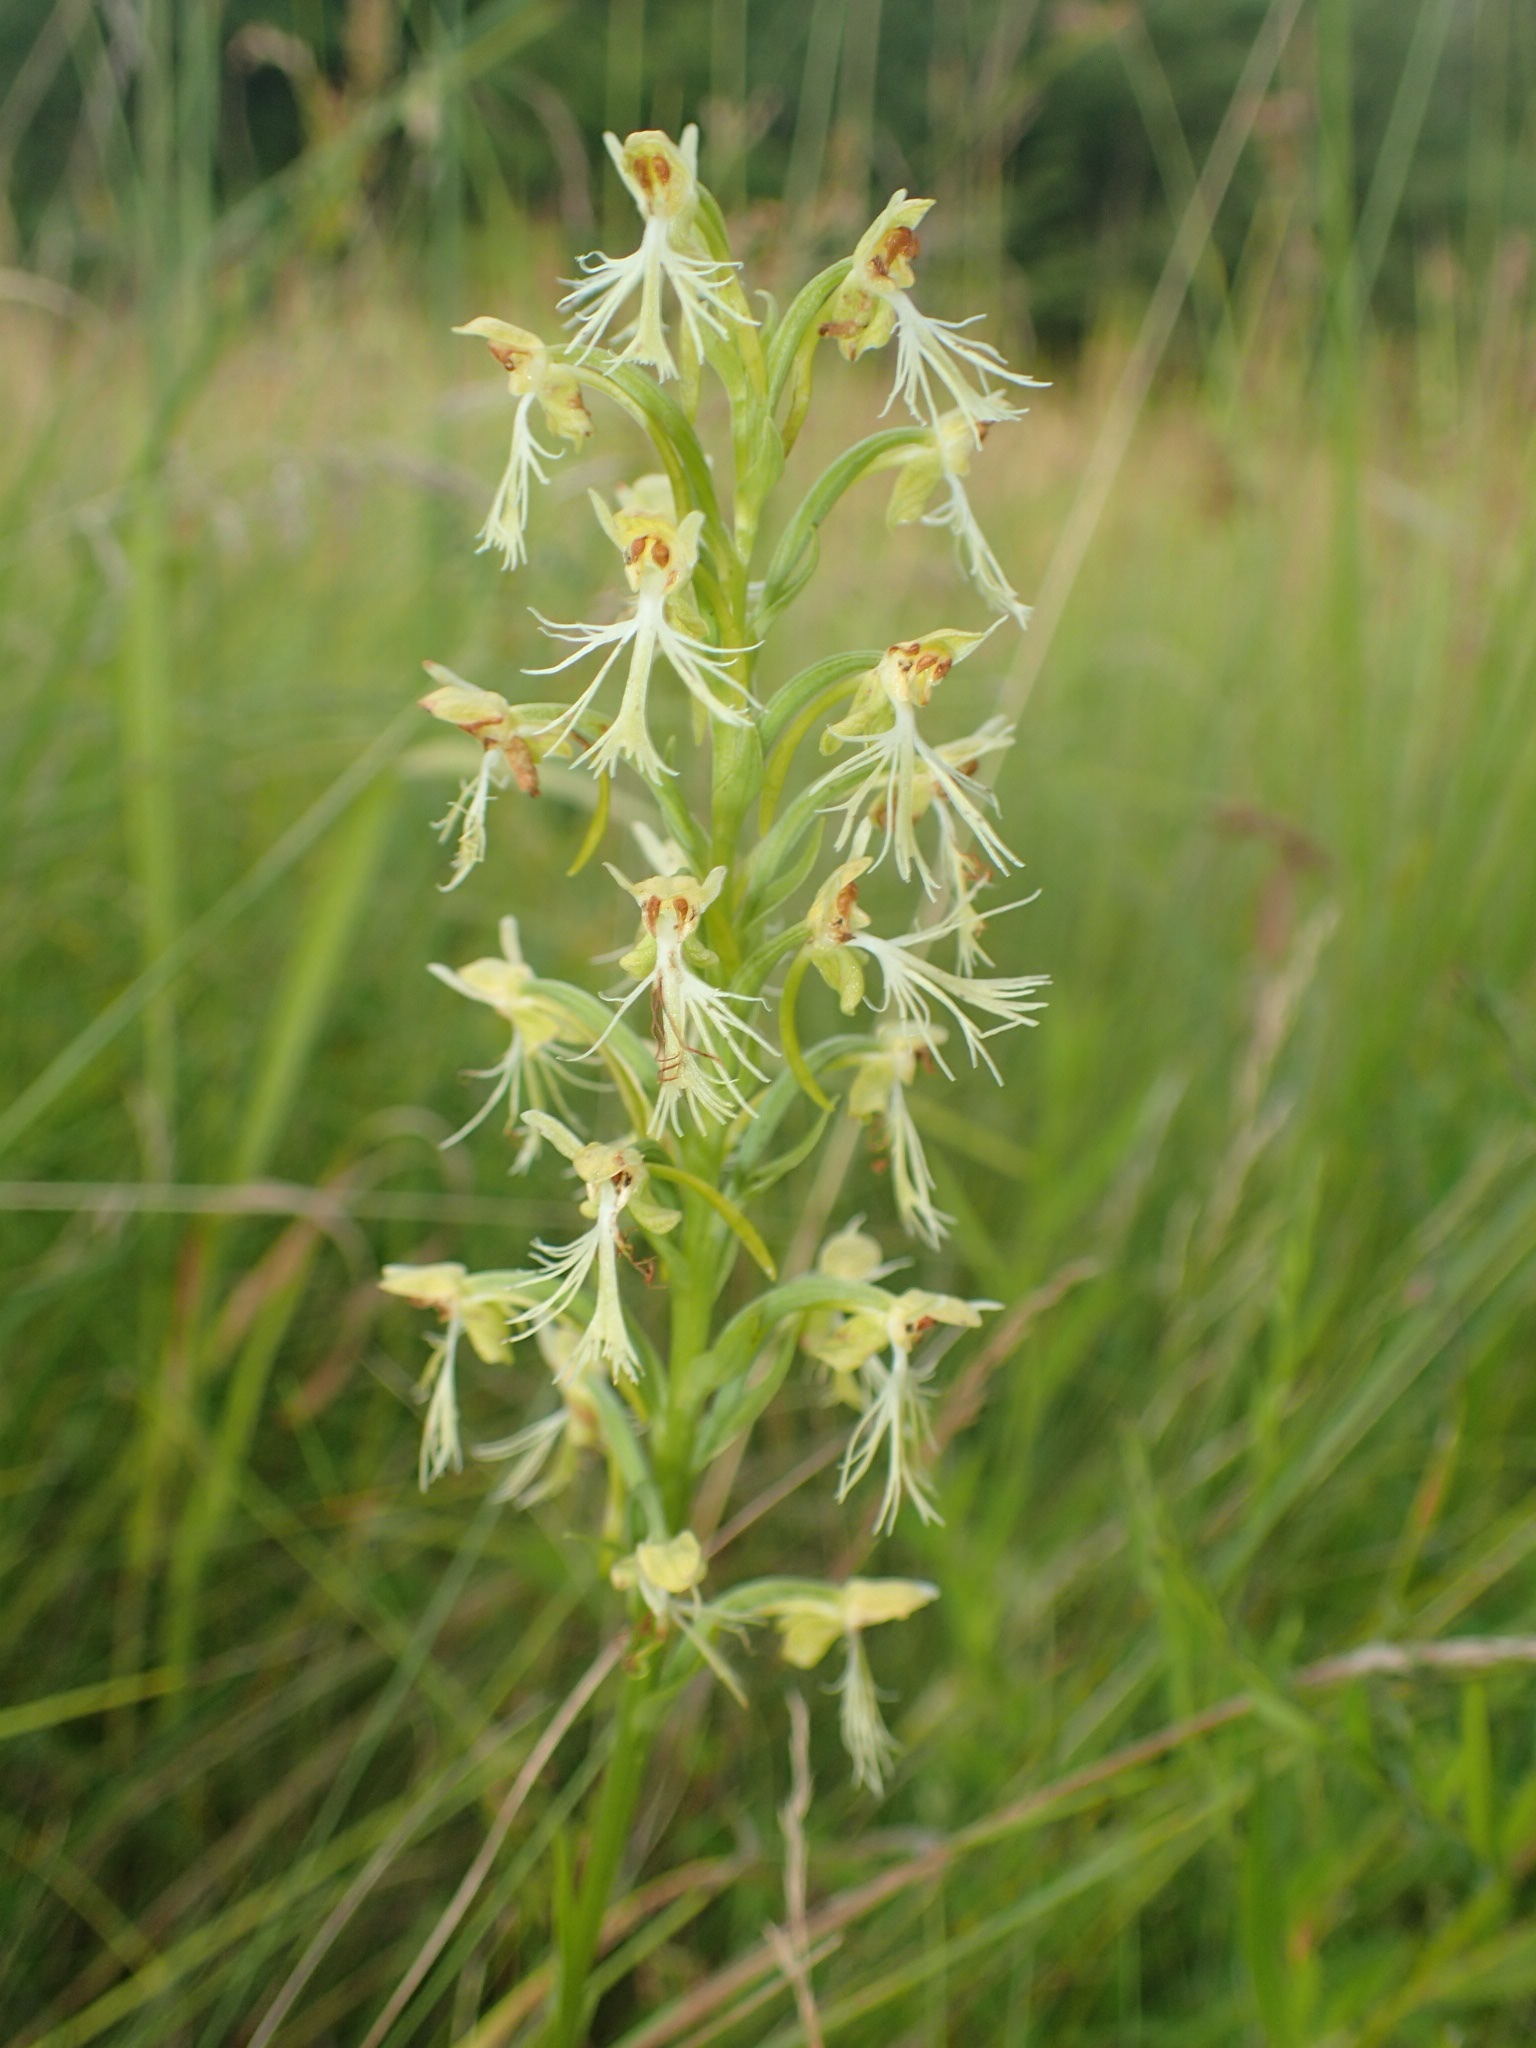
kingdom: Plantae
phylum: Tracheophyta
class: Liliopsida
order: Asparagales
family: Orchidaceae
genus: Platanthera
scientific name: Platanthera lacera
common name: Green fringed orchid
